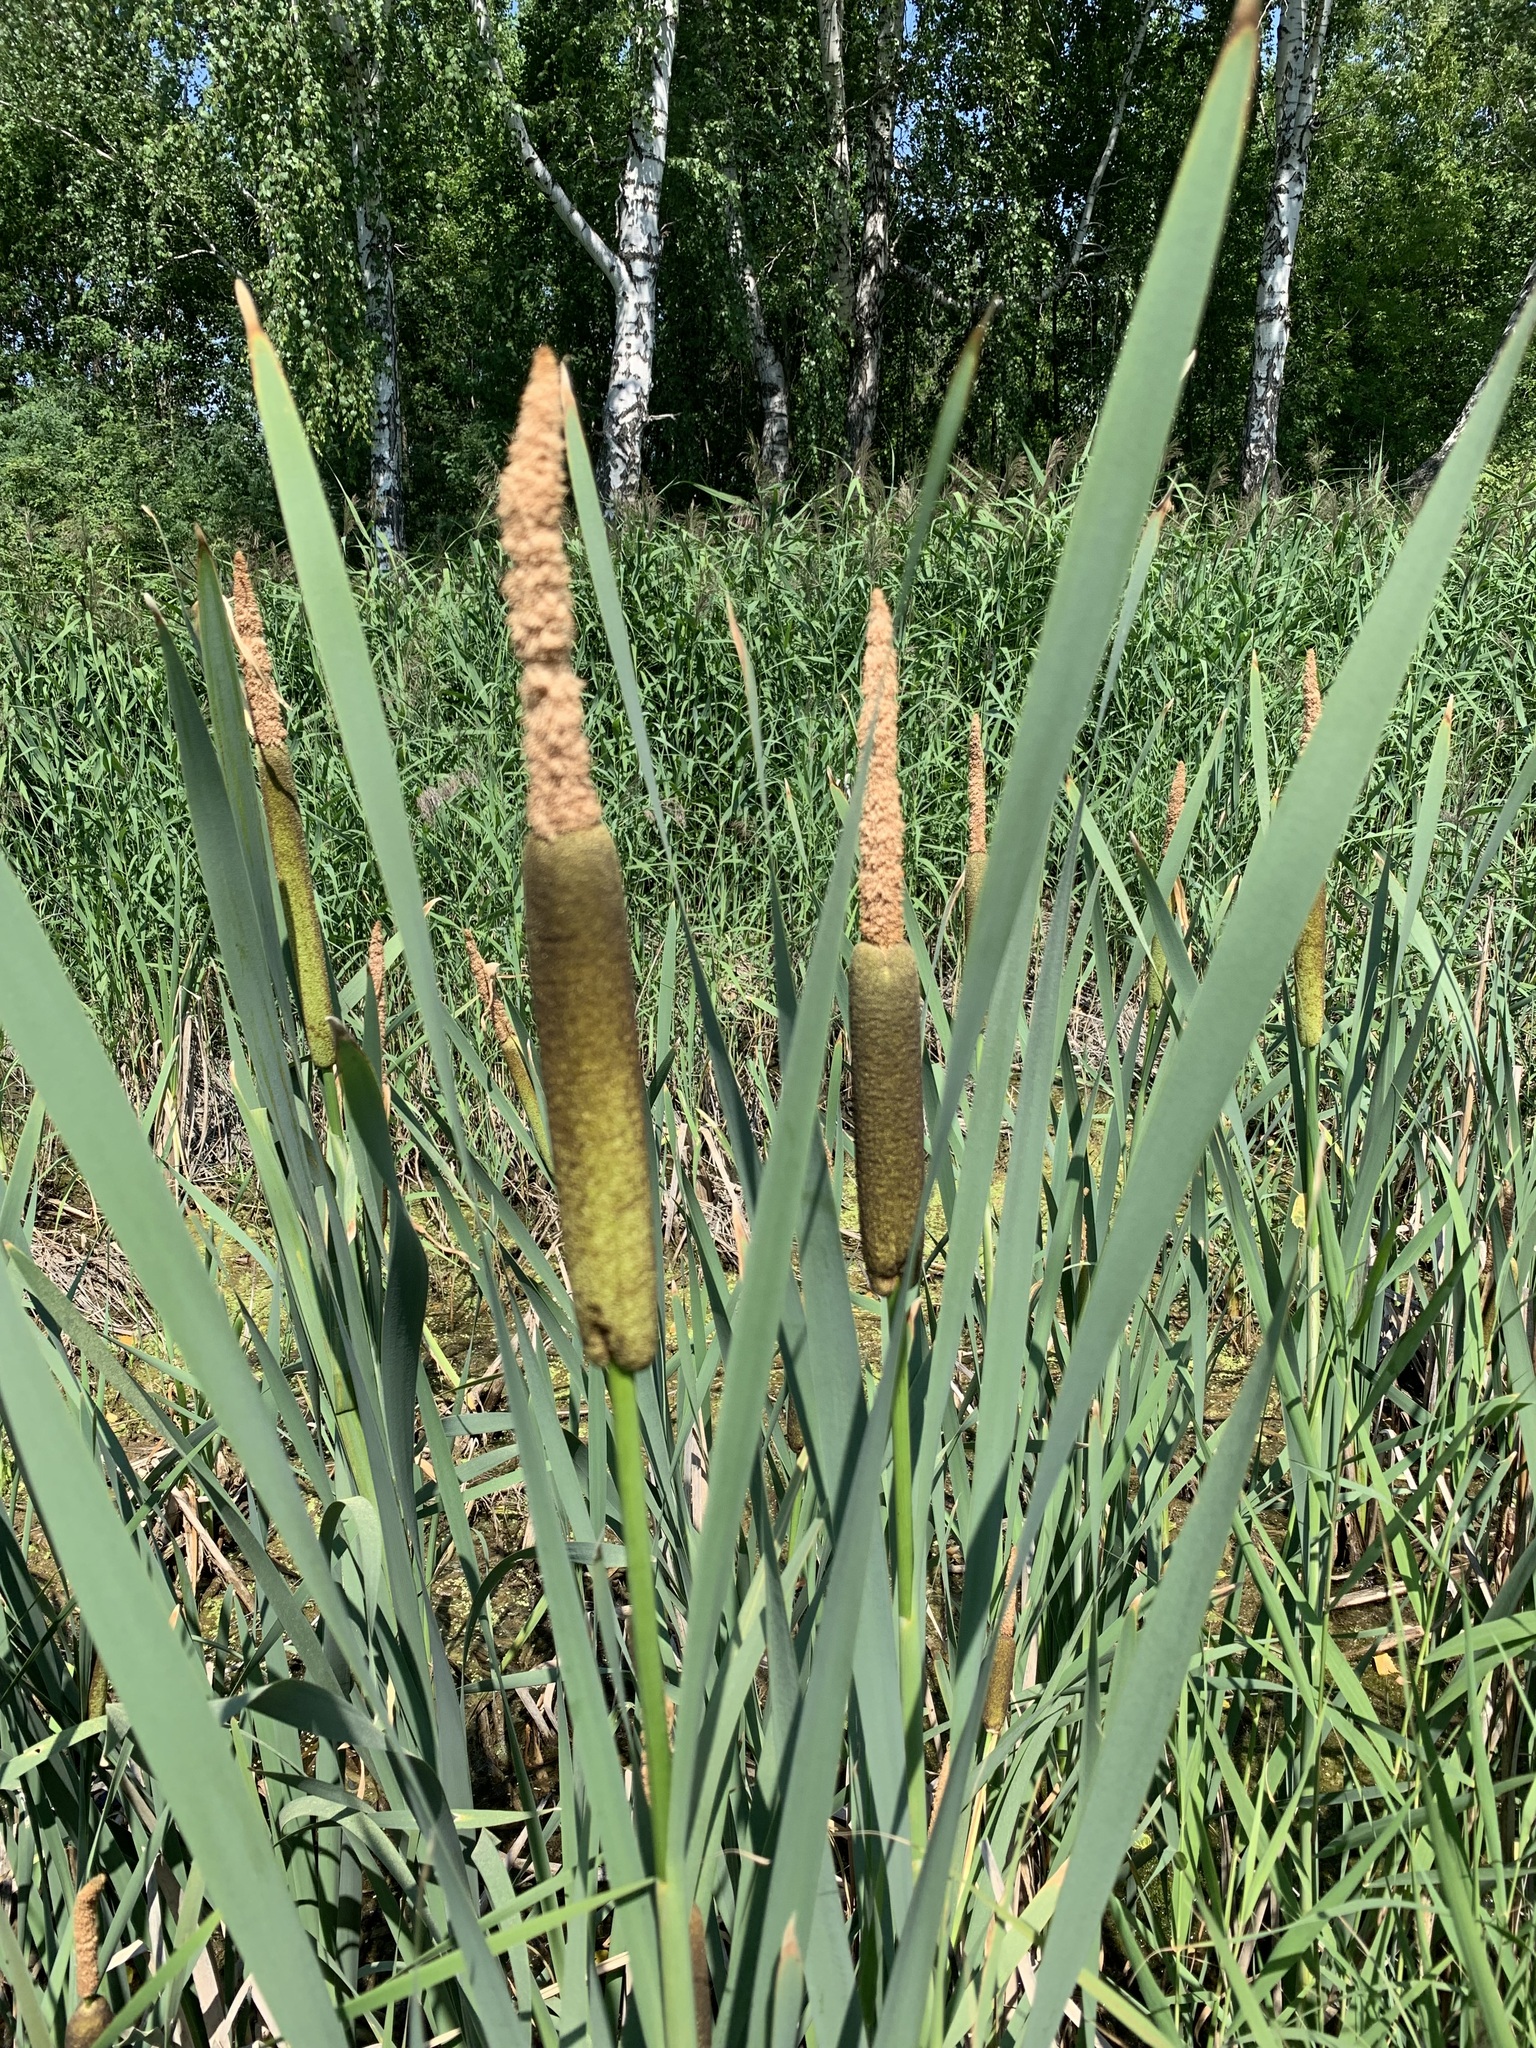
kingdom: Plantae
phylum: Tracheophyta
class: Liliopsida
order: Poales
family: Typhaceae
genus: Typha
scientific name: Typha latifolia
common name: Broadleaf cattail
